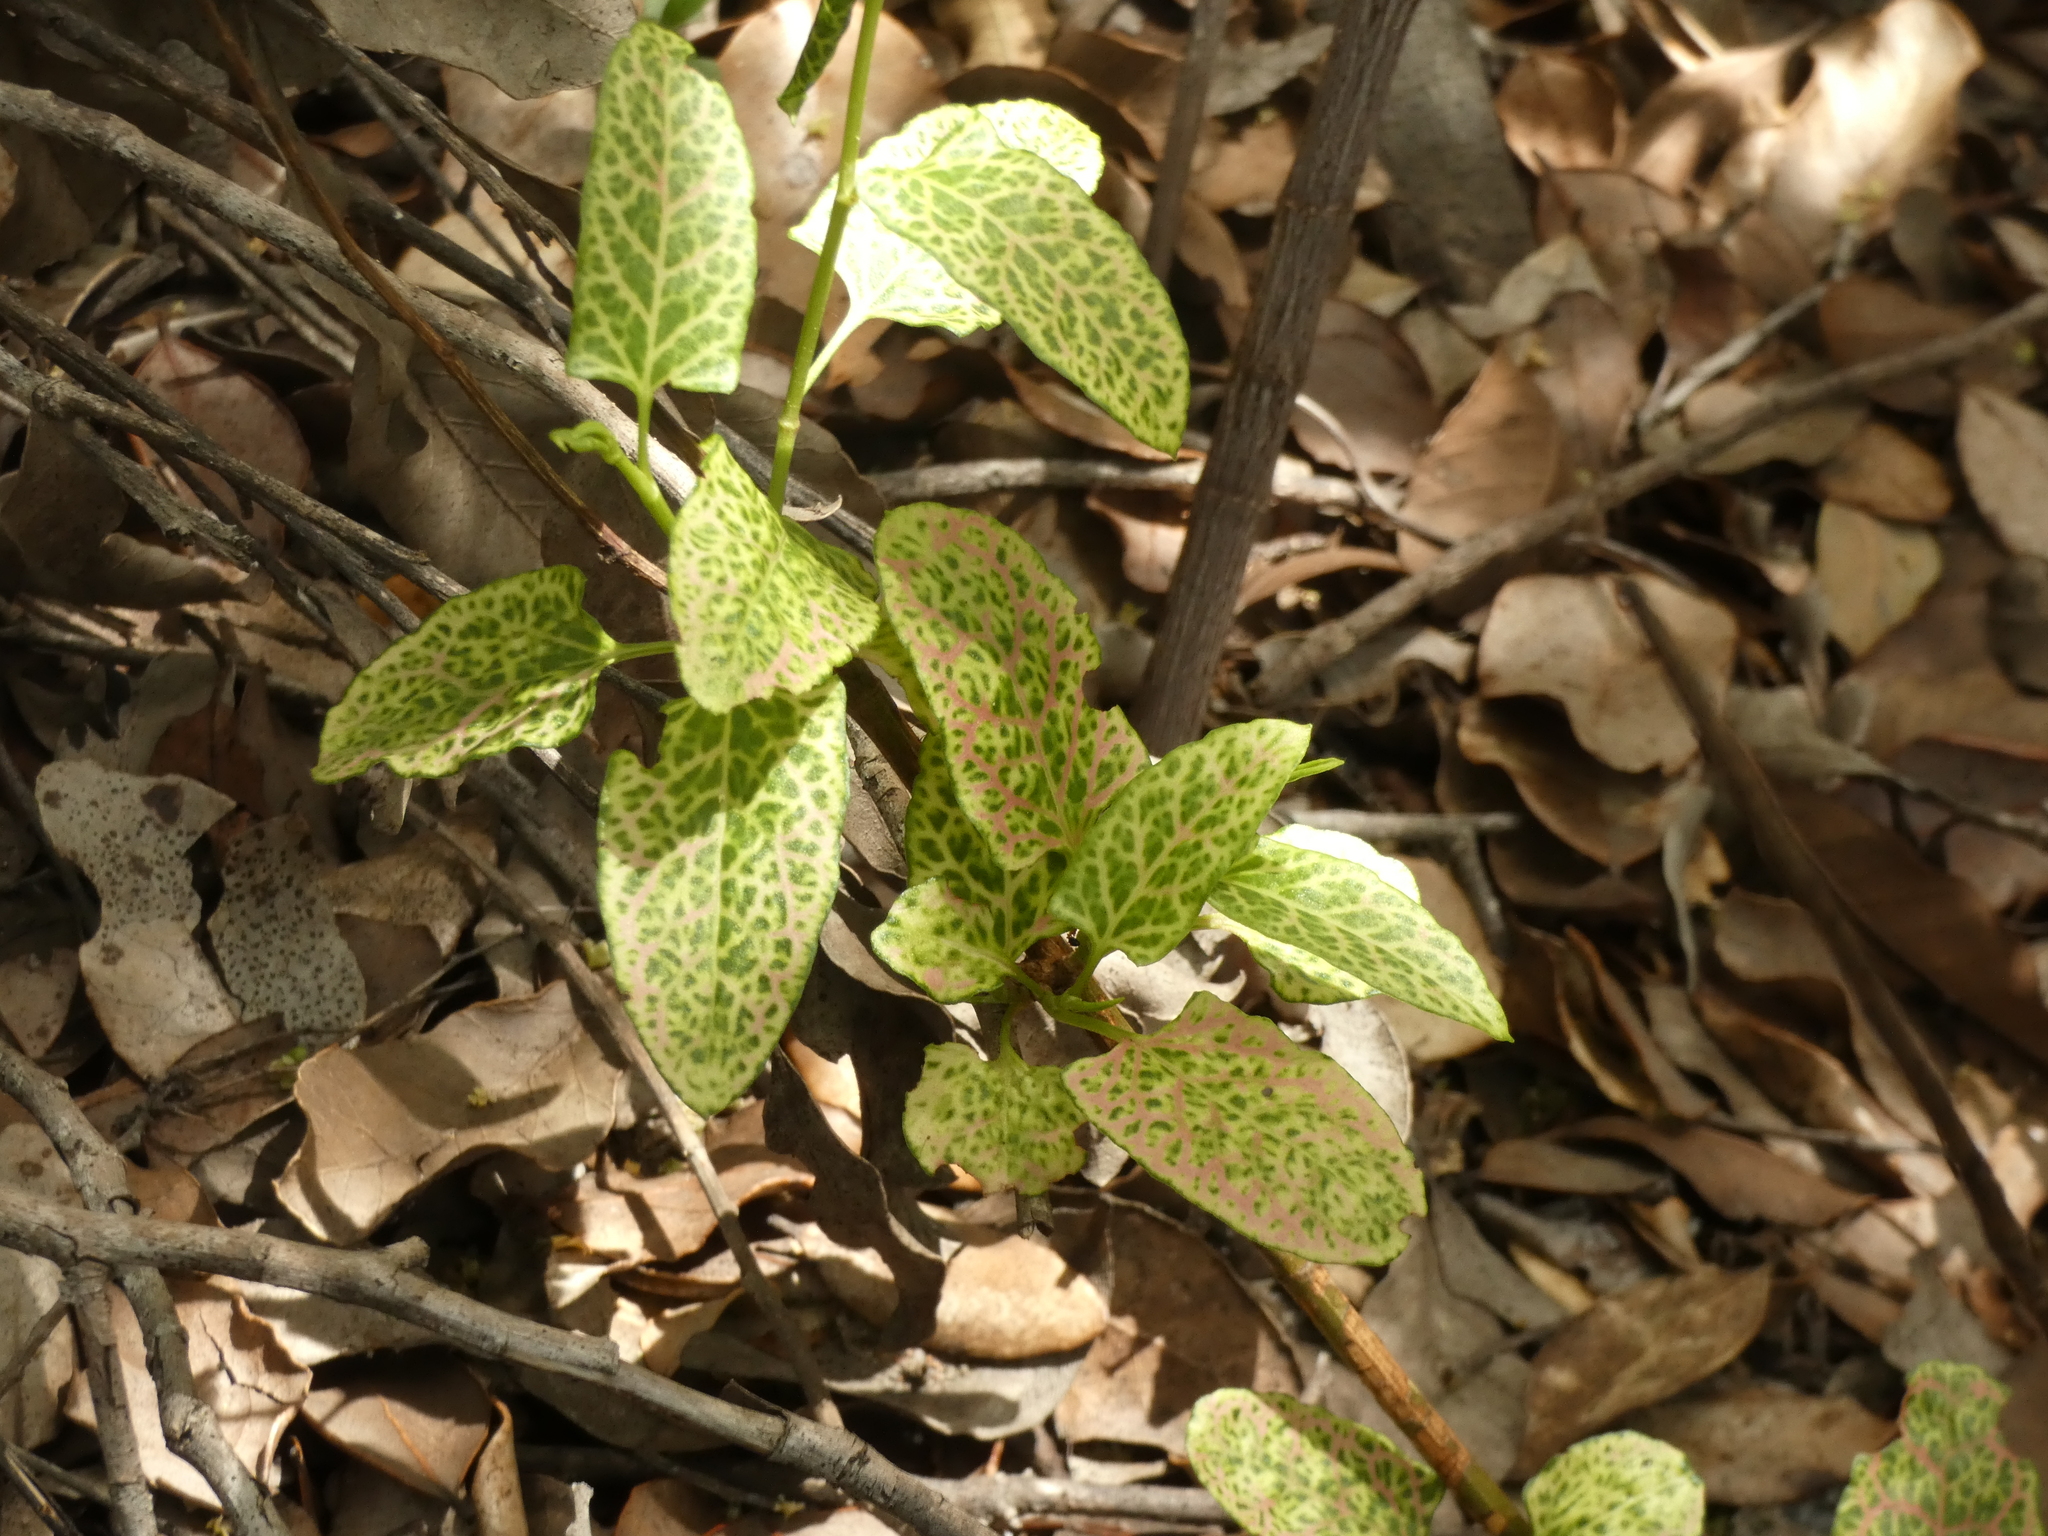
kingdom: Plantae
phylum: Tracheophyta
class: Magnoliopsida
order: Caryophyllales
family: Polygonaceae
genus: Muehlenbeckia
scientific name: Muehlenbeckia hastulata
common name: Wirevine
